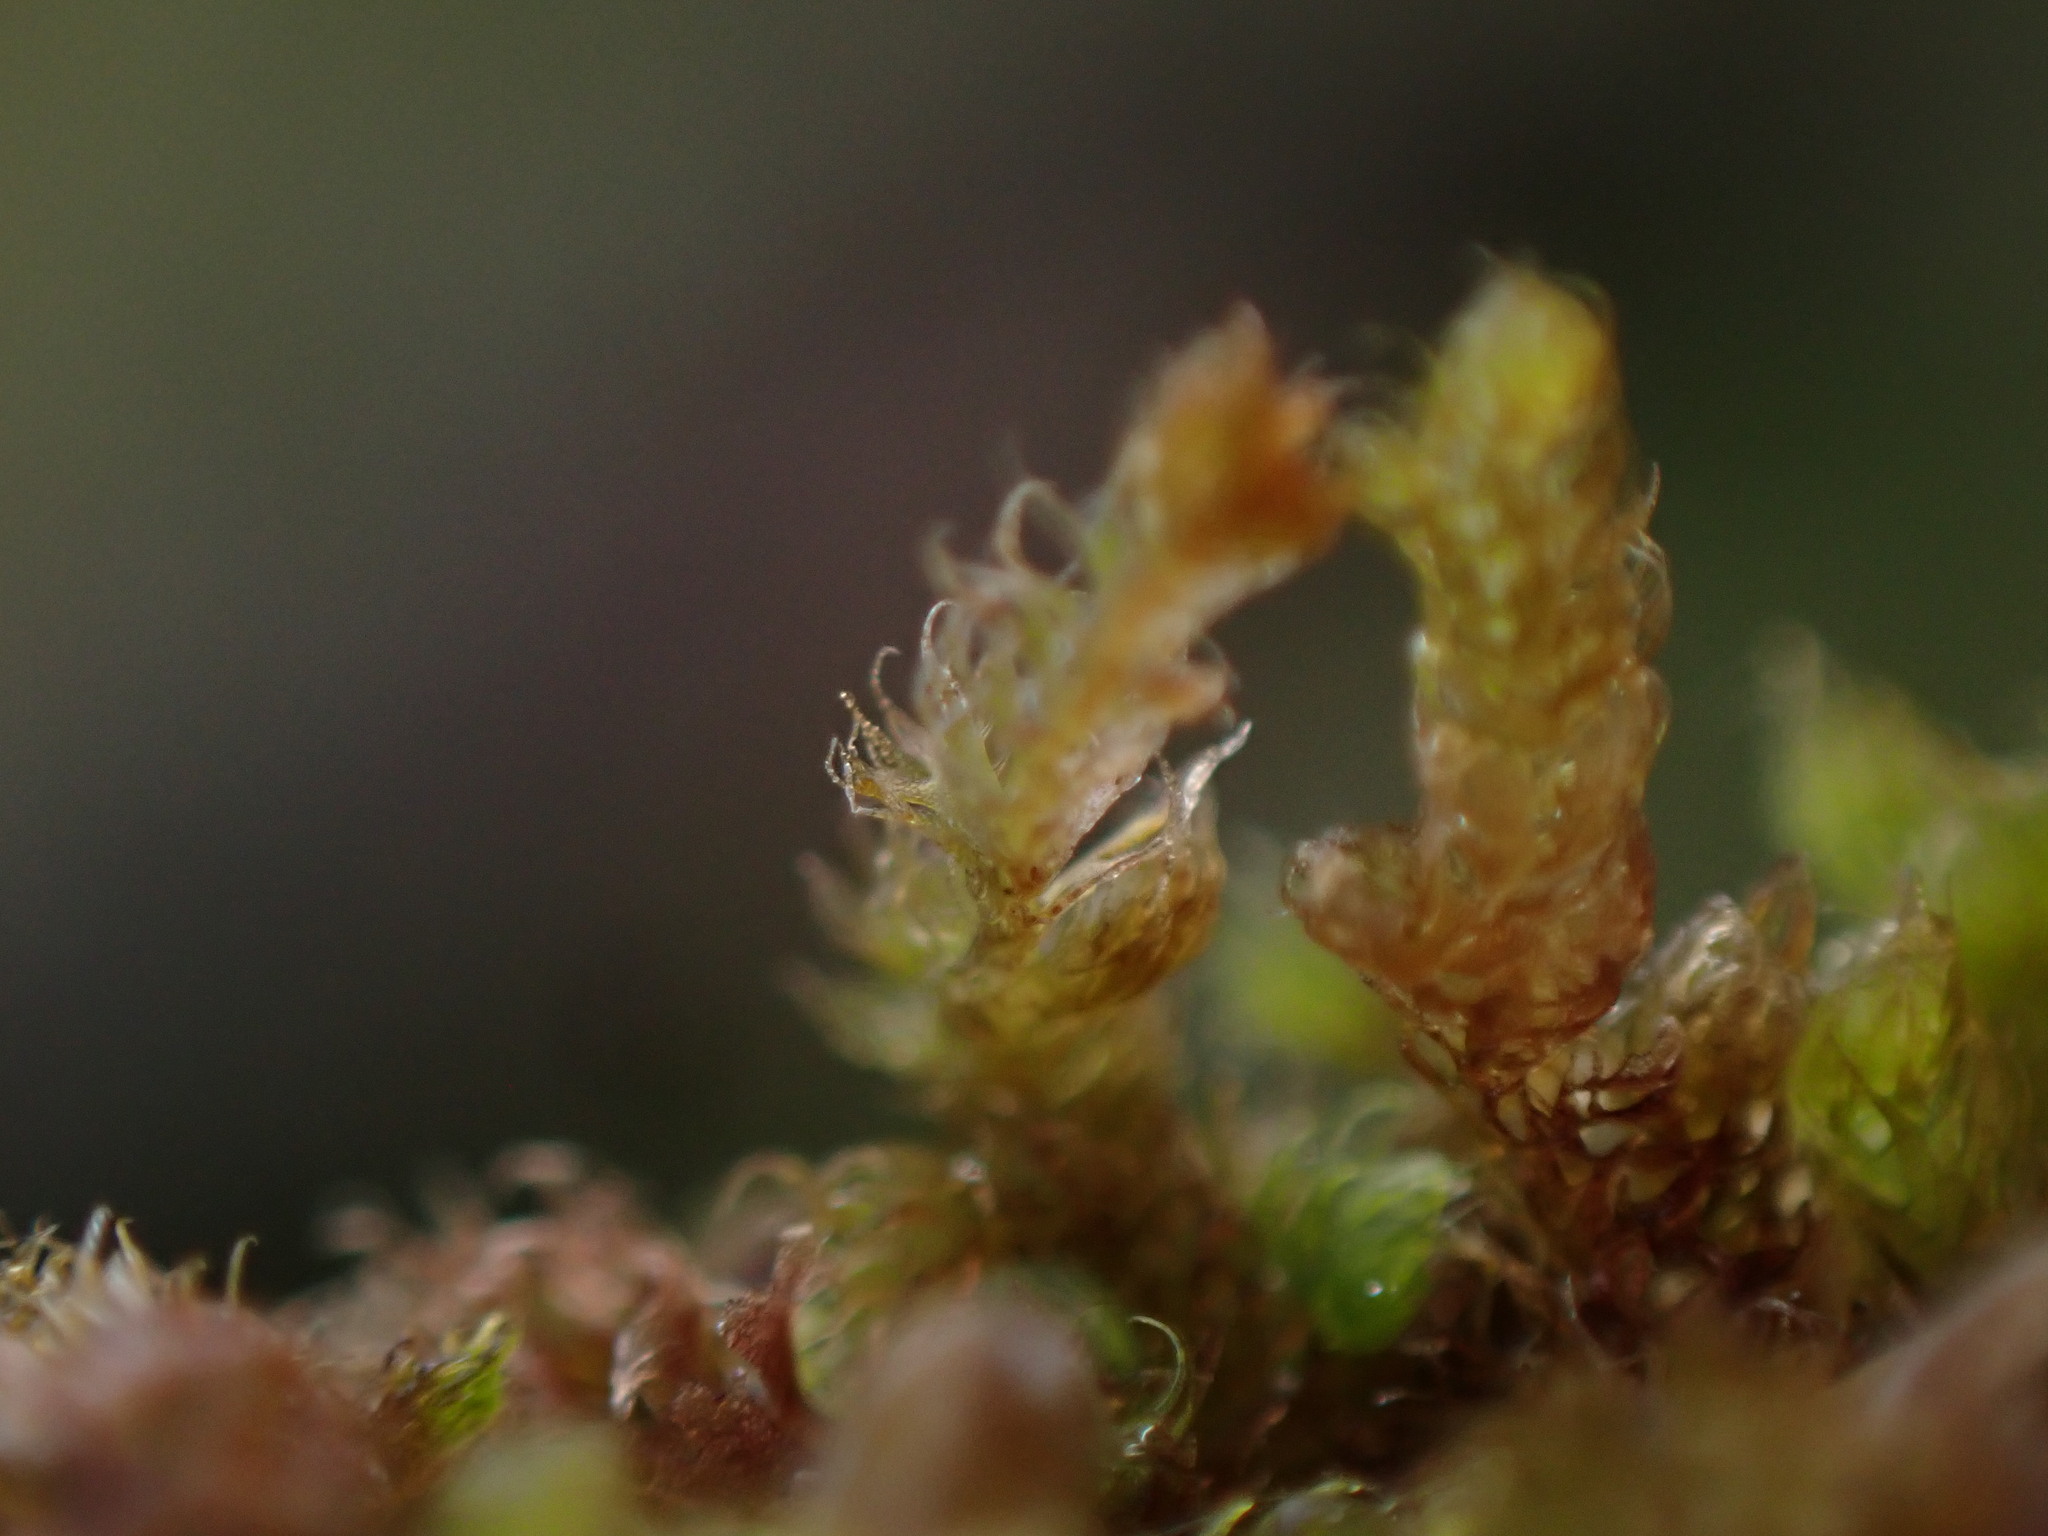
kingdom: Plantae
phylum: Marchantiophyta
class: Jungermanniopsida
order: Ptilidiales
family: Ptilidiaceae
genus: Ptilidium
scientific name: Ptilidium californicum
